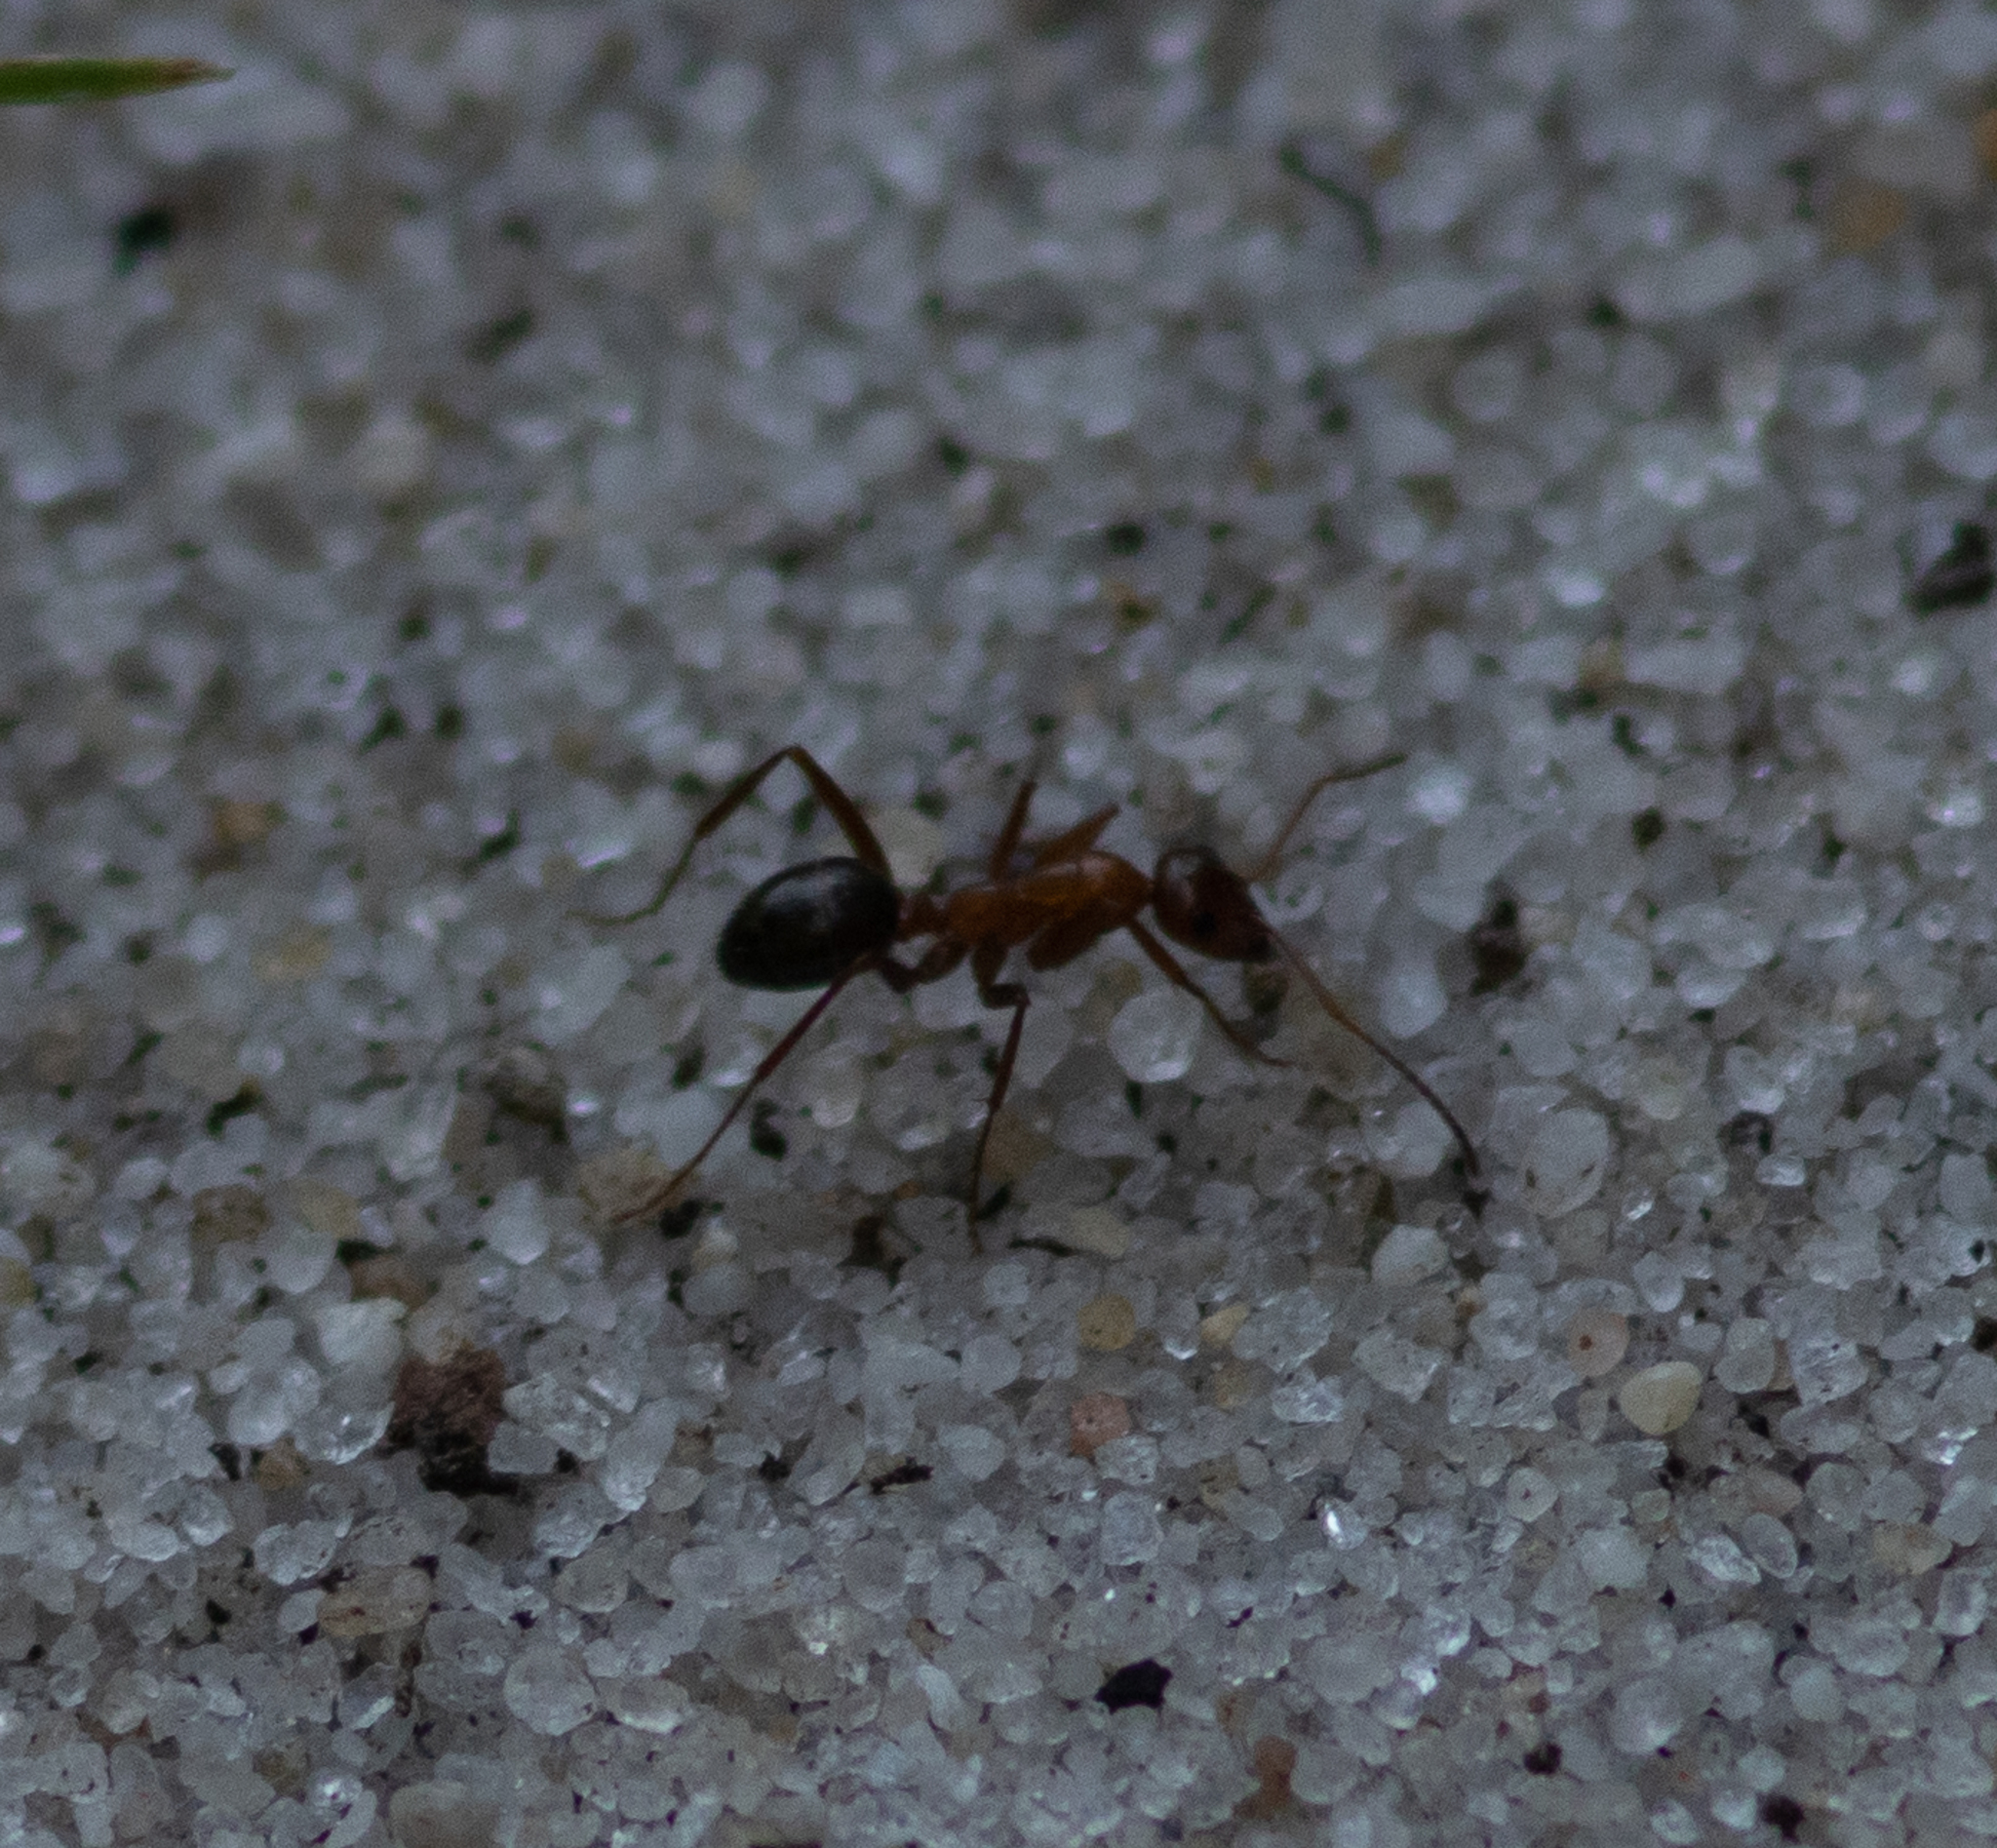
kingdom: Animalia
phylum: Arthropoda
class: Insecta
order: Hymenoptera
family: Formicidae
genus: Formica
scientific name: Formica
